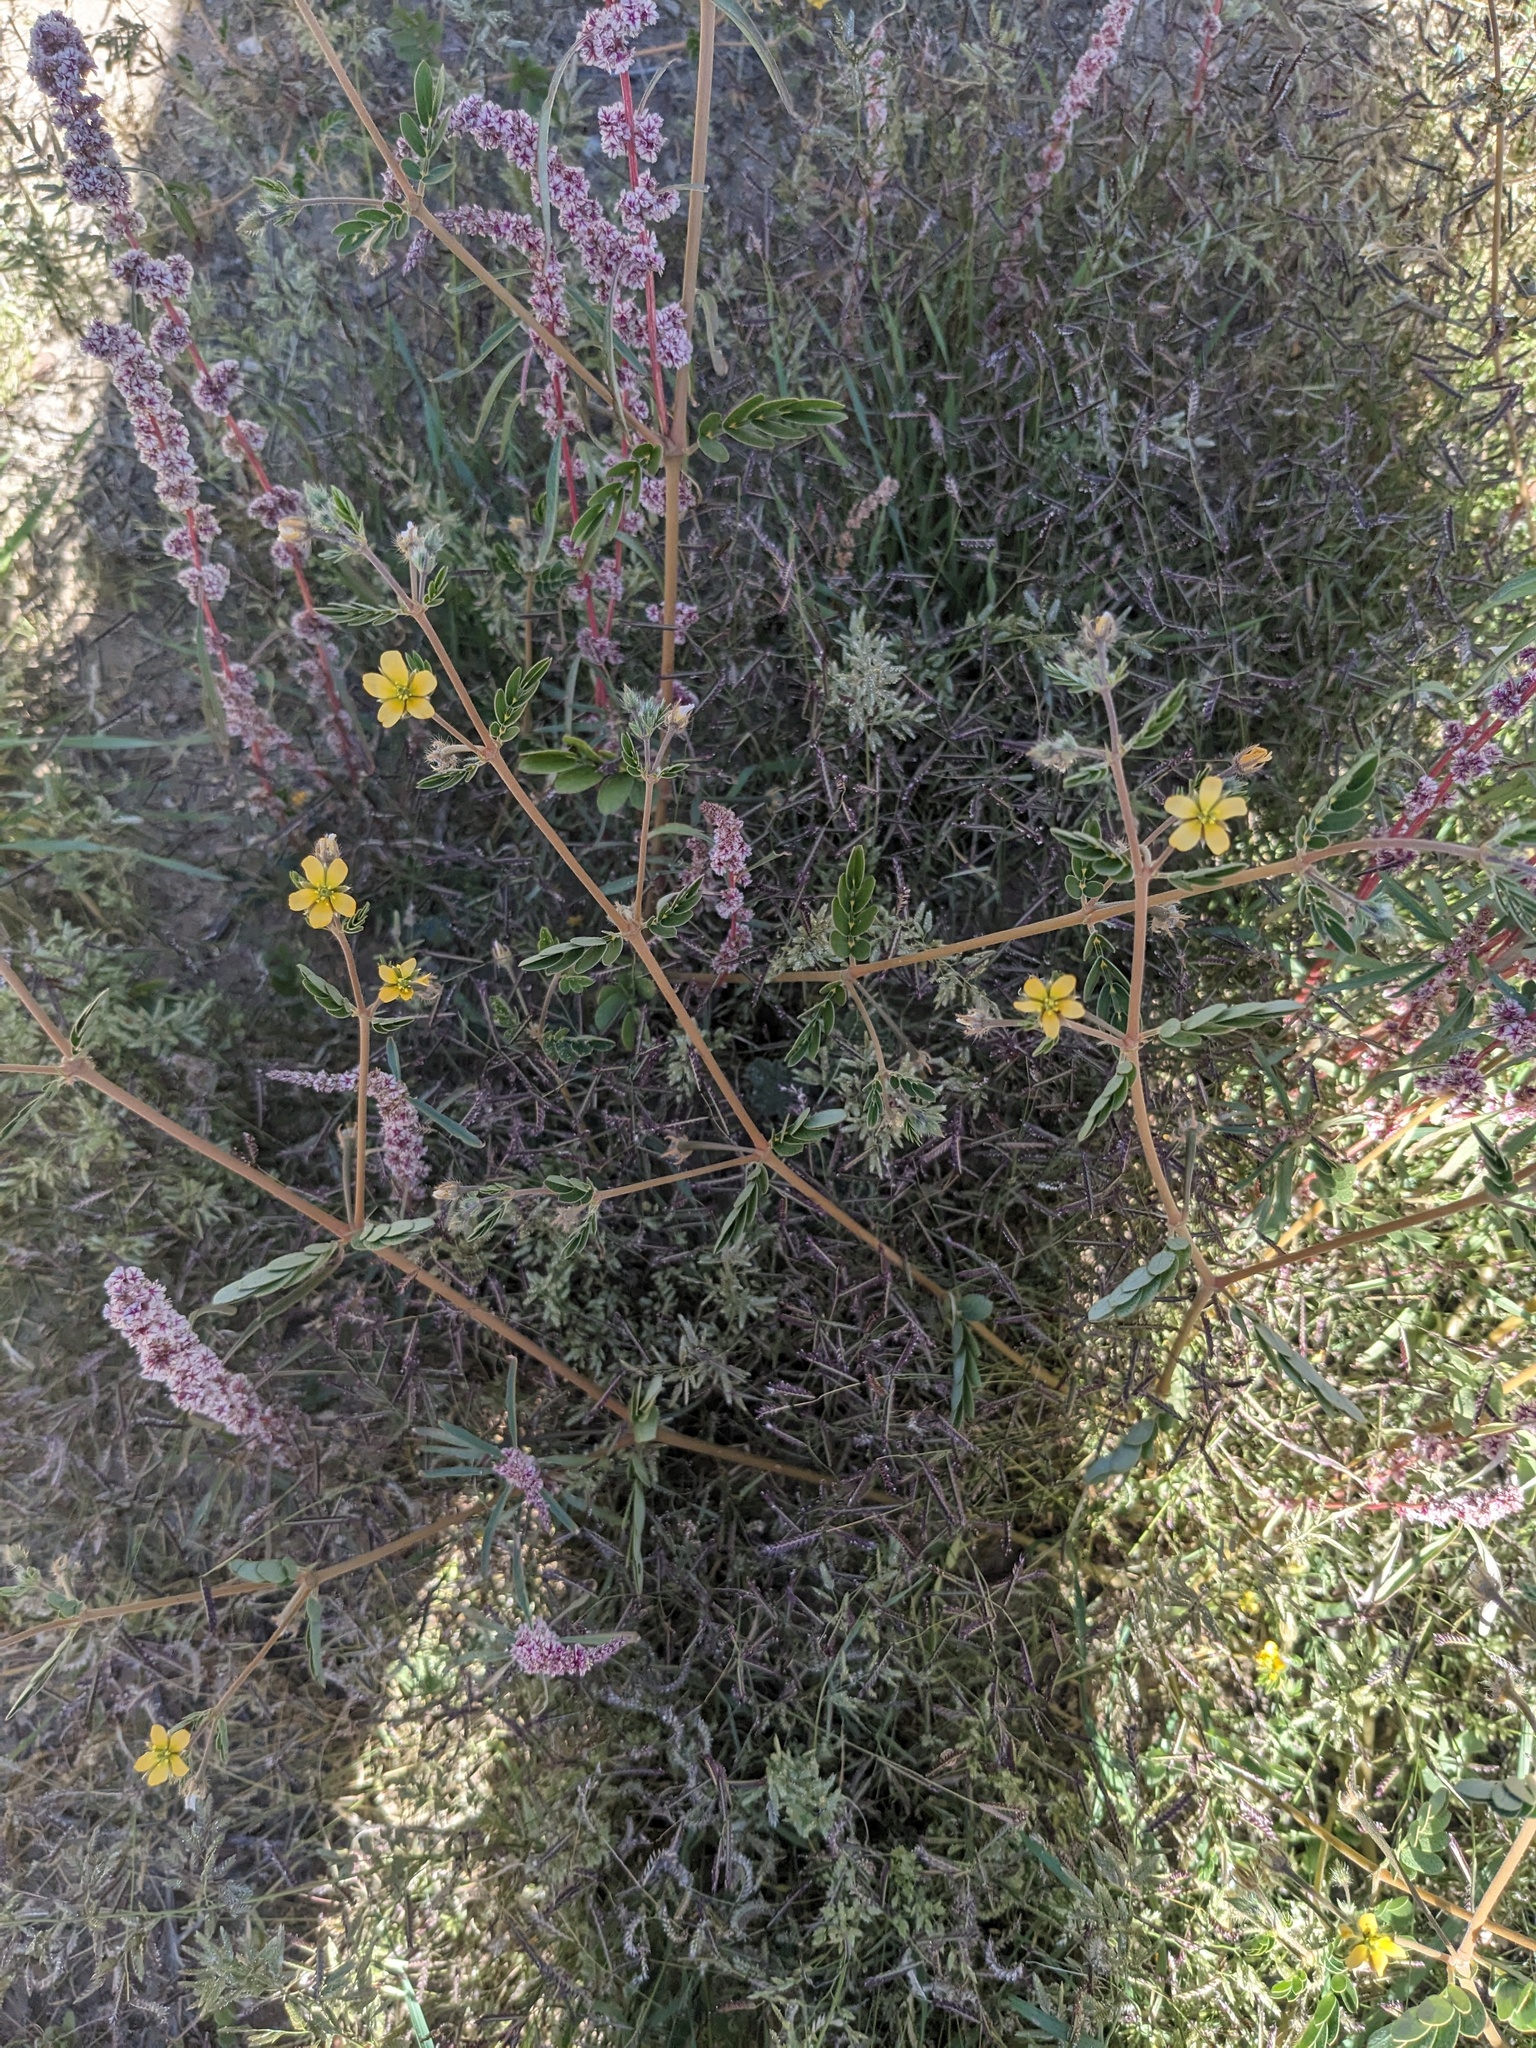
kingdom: Plantae
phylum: Tracheophyta
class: Magnoliopsida
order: Zygophyllales
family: Zygophyllaceae
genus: Kallstroemia
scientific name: Kallstroemia californica
